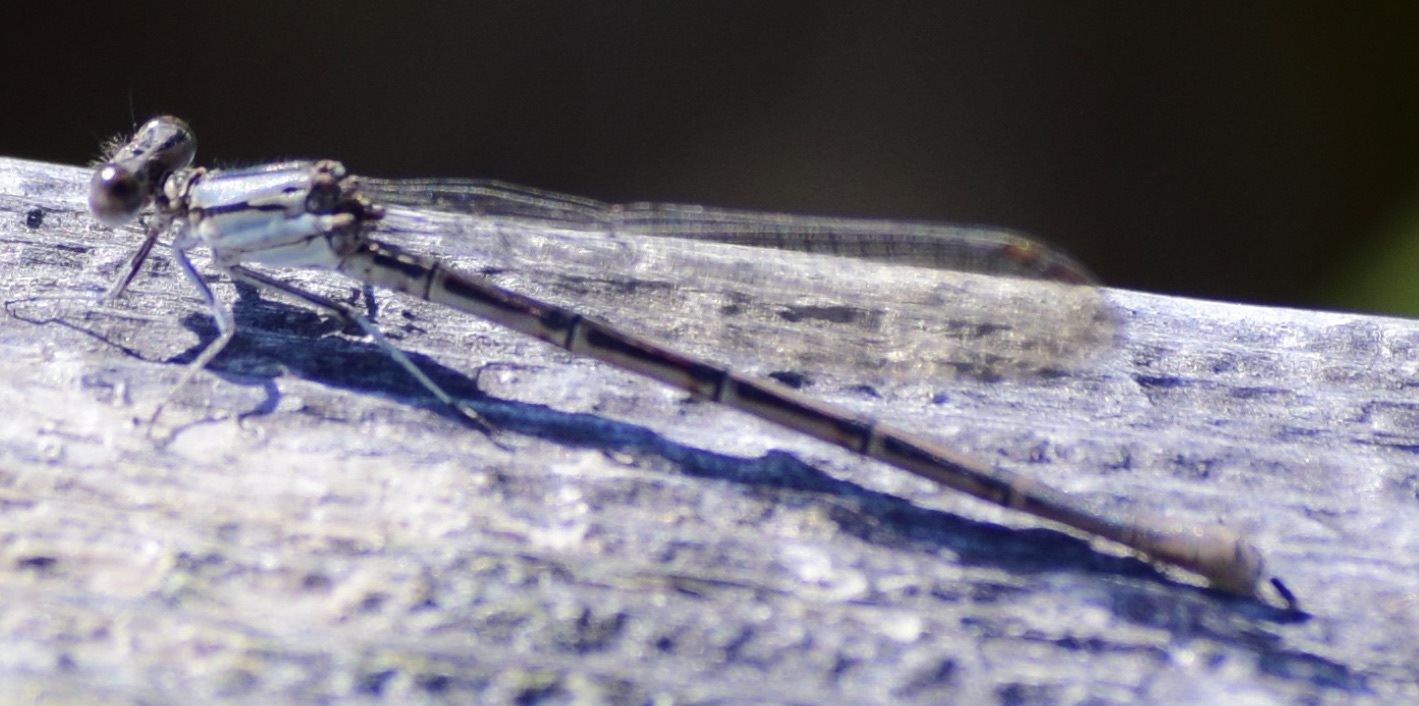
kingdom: Animalia
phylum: Arthropoda
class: Insecta
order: Odonata
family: Coenagrionidae
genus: Argia
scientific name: Argia fumipennis
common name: Variable dancer
